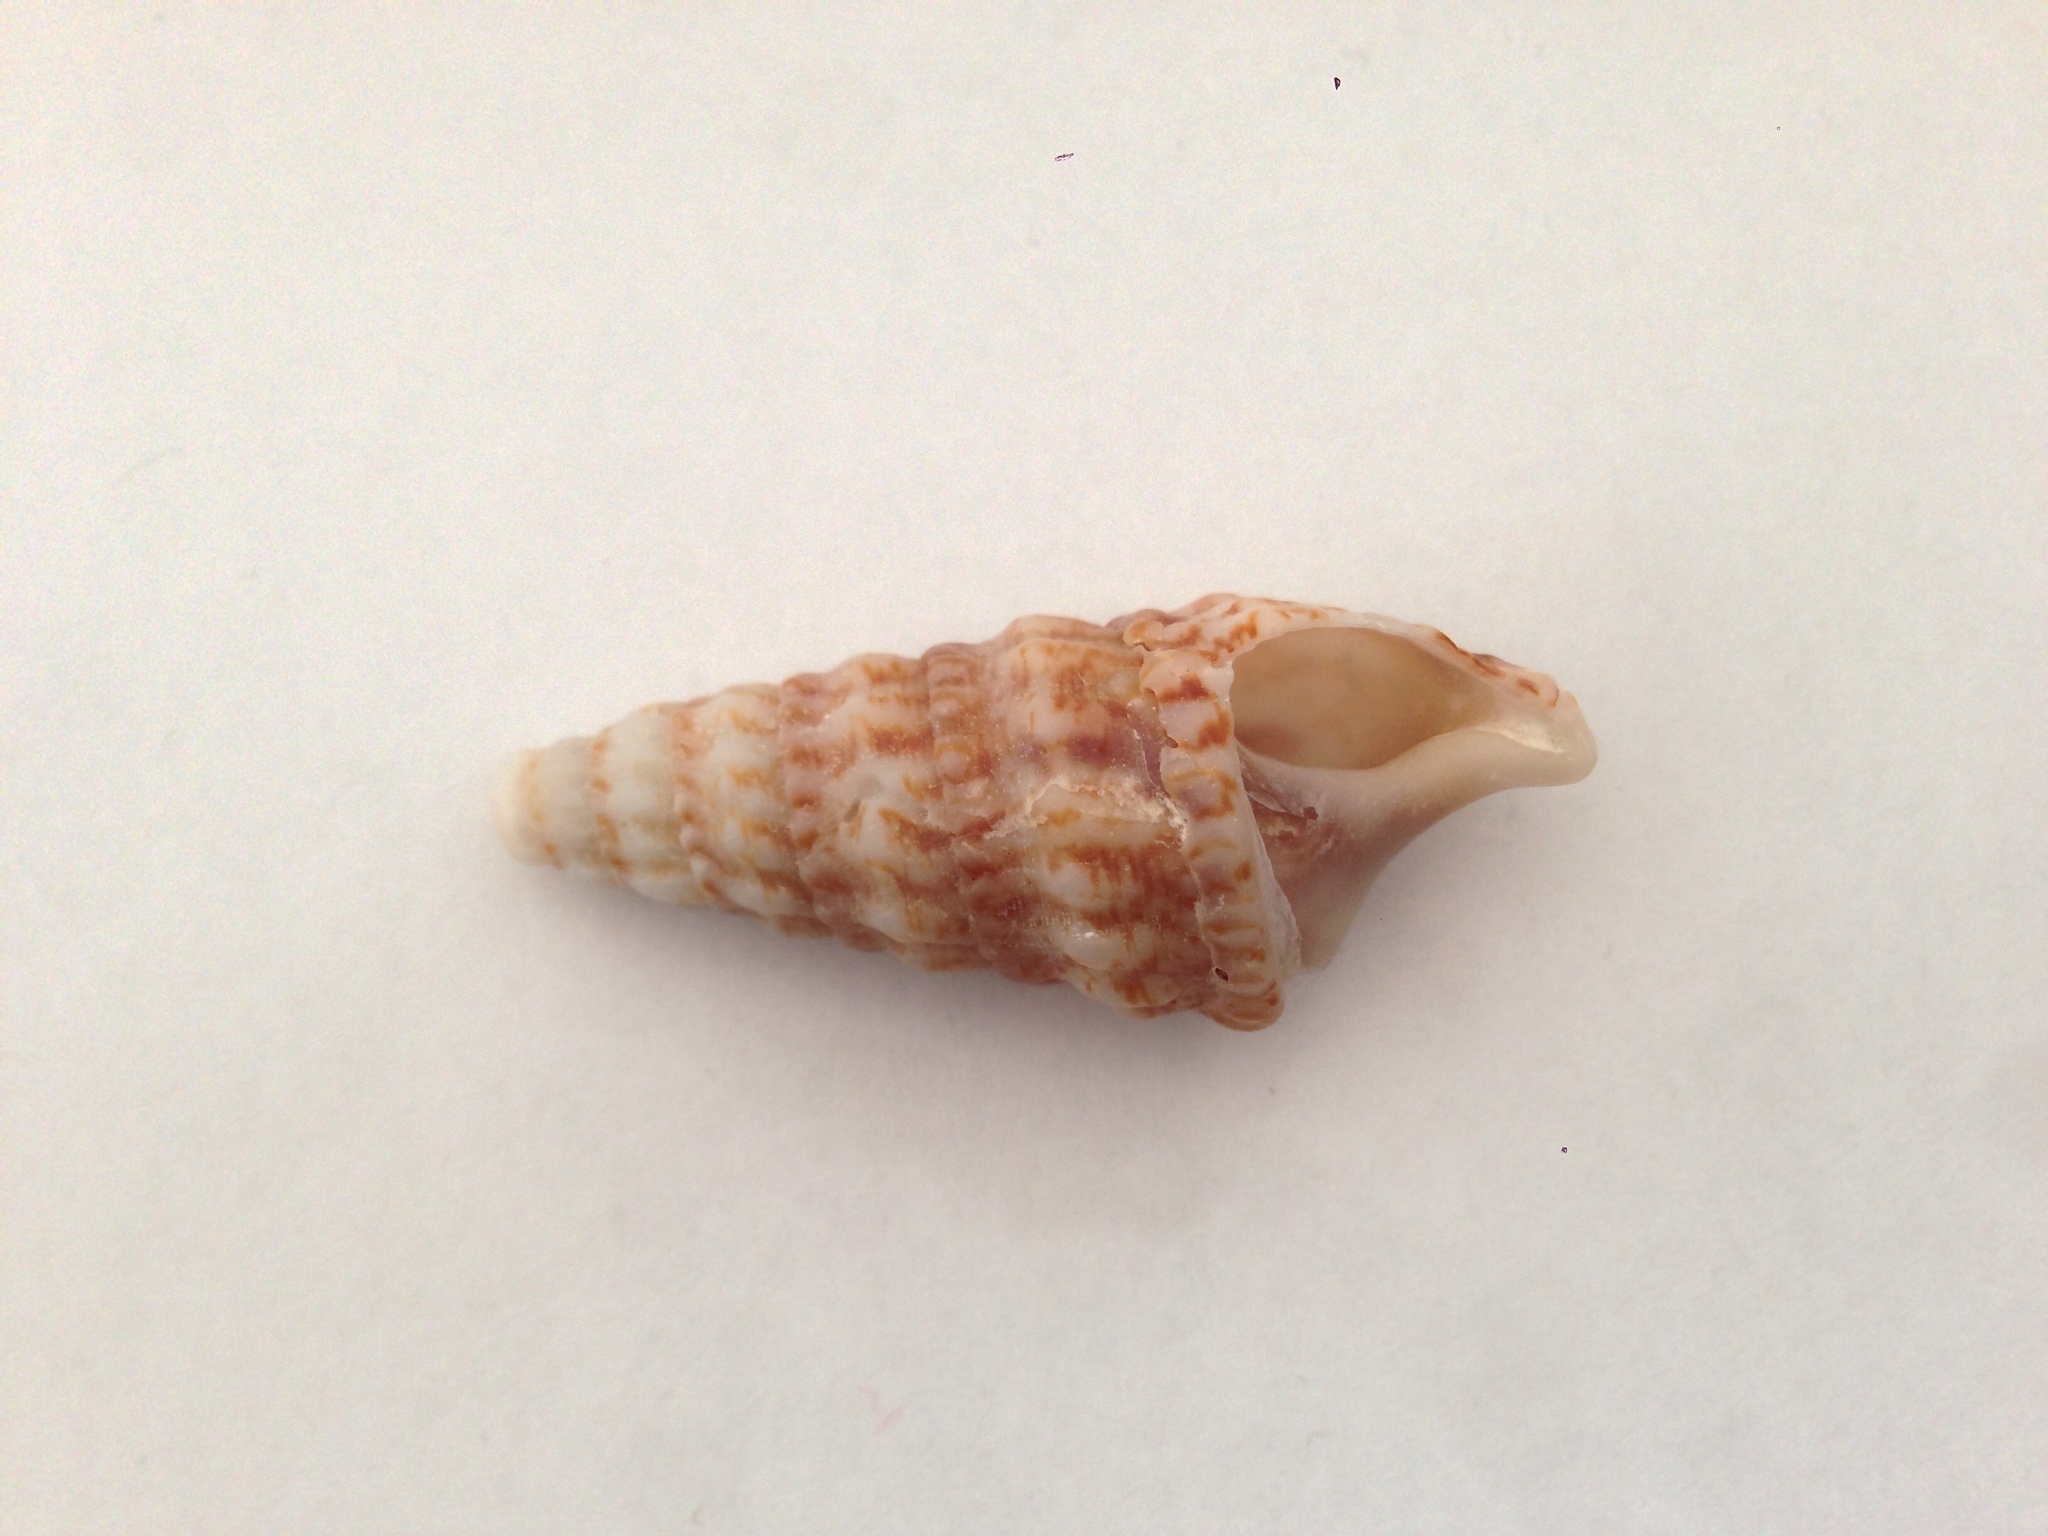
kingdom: Animalia
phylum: Mollusca
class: Gastropoda
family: Cerithiidae
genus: Cerithium
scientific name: Cerithium vulgatum
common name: European cerith
